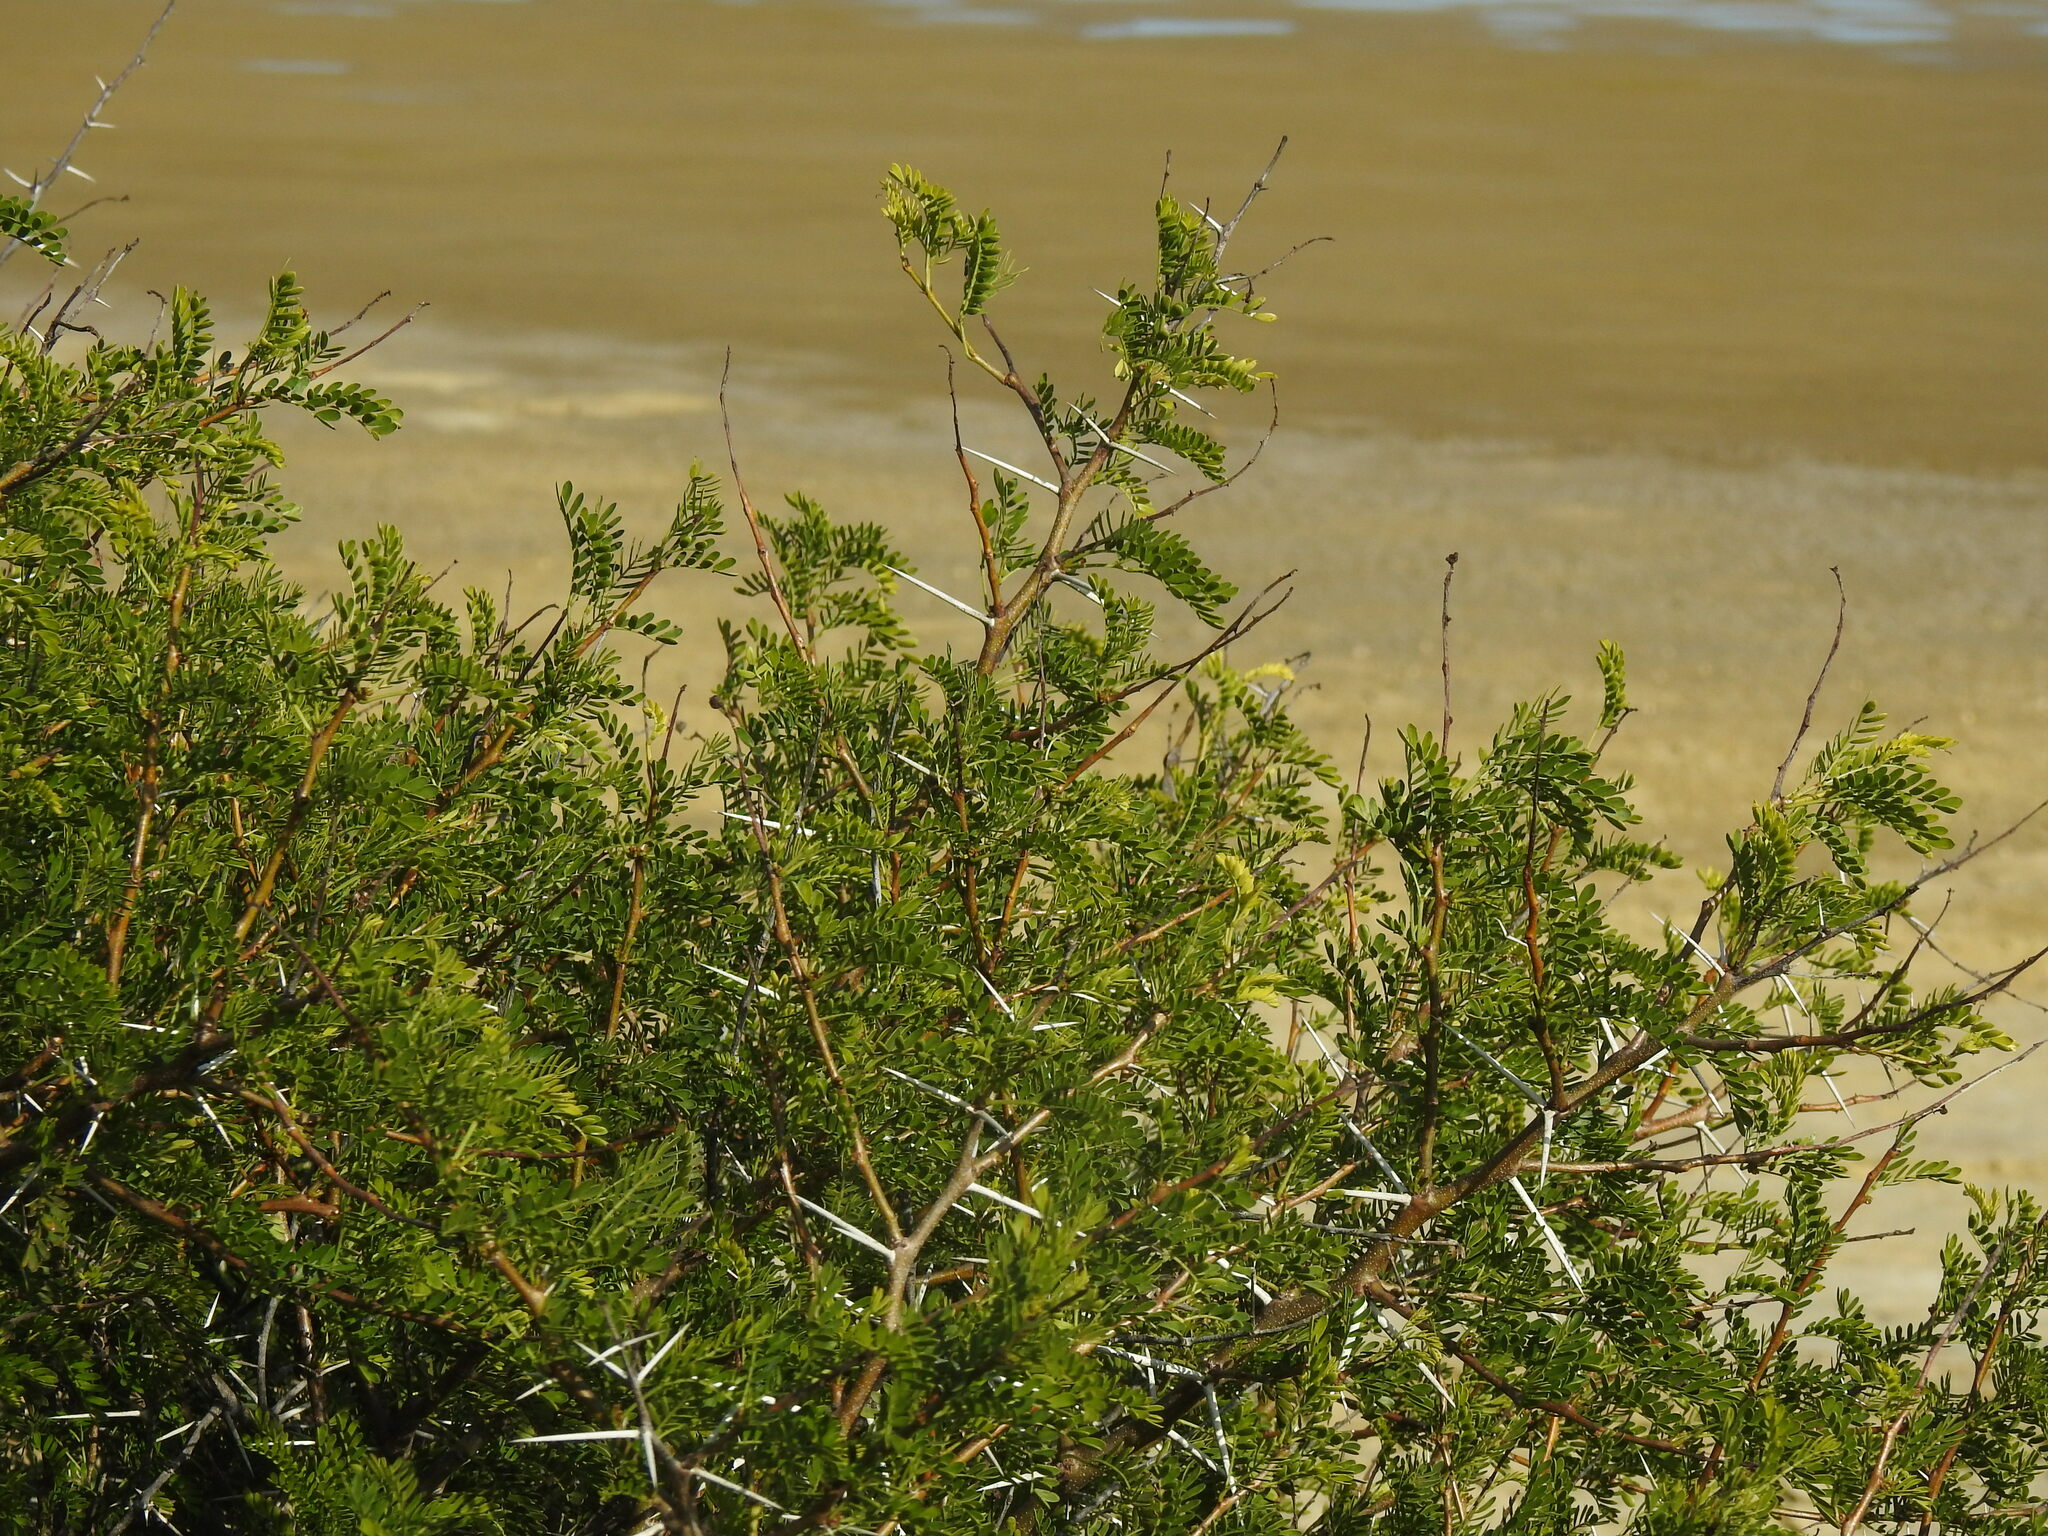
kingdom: Plantae
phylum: Tracheophyta
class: Magnoliopsida
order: Fabales
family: Fabaceae
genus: Vachellia
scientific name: Vachellia karroo
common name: Sweet thorn
